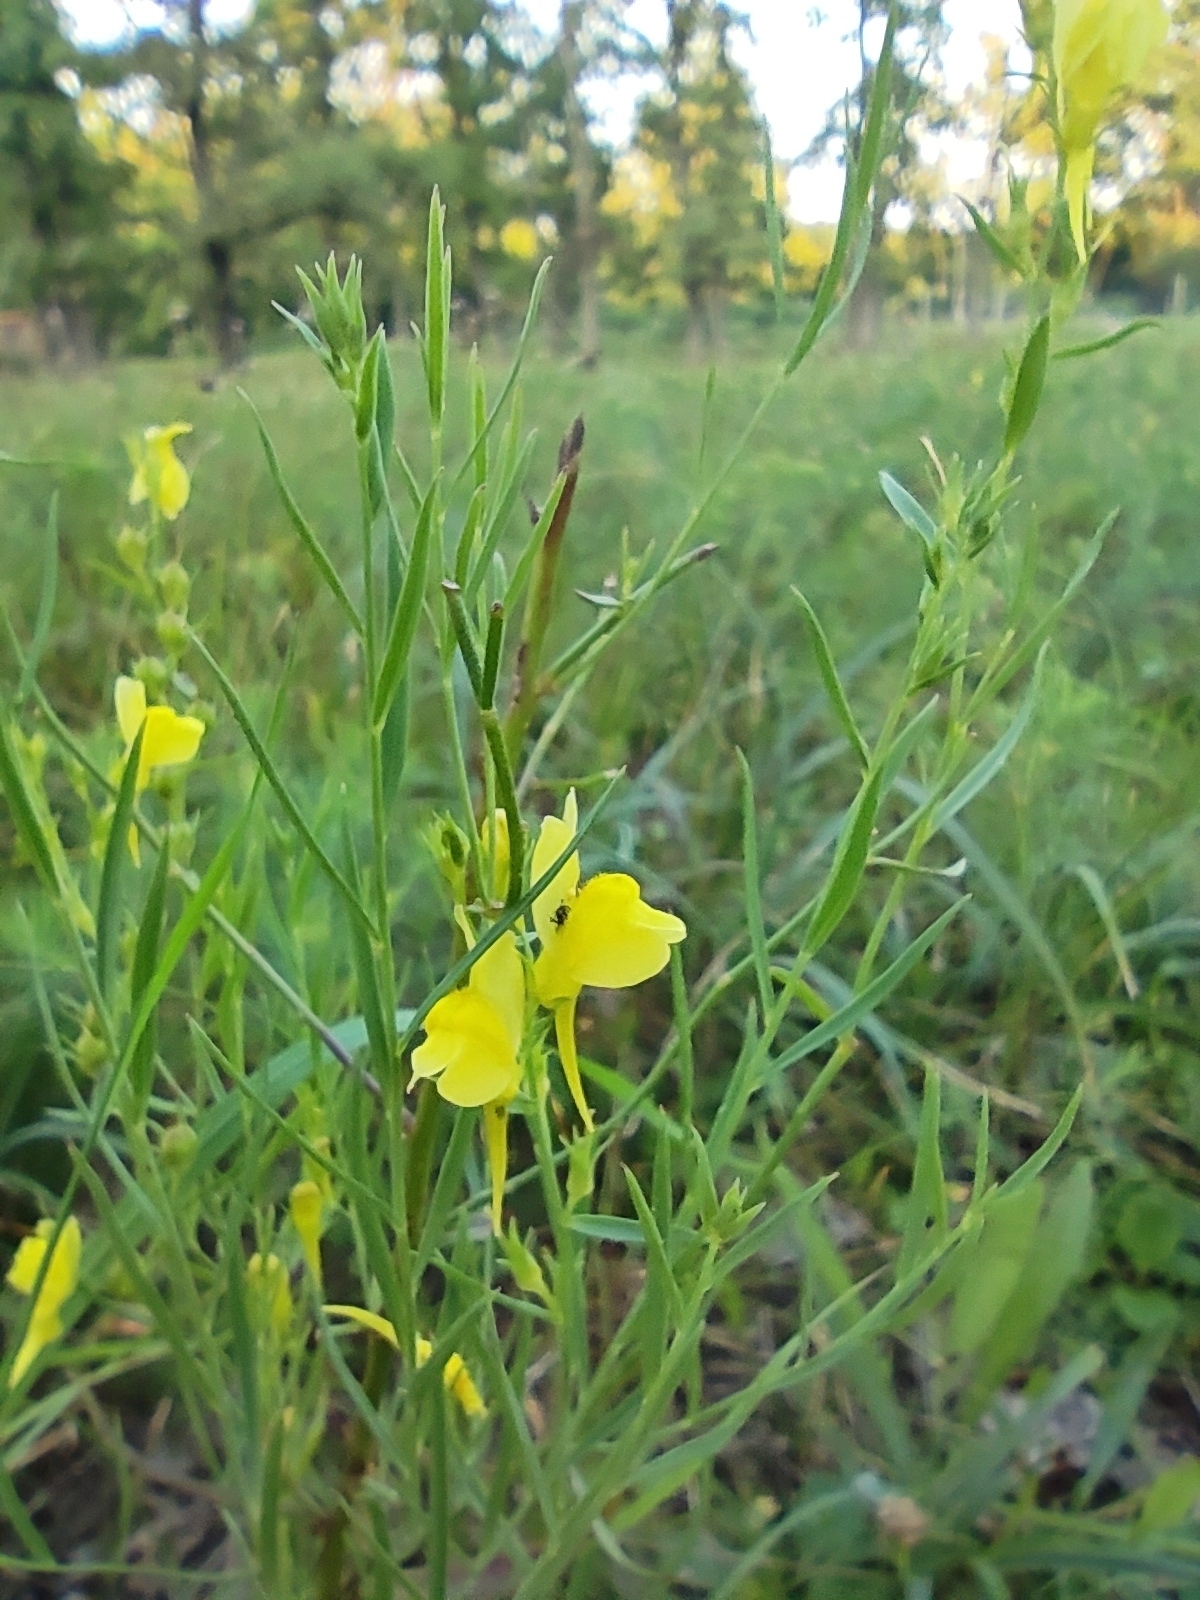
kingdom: Plantae
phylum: Tracheophyta
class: Magnoliopsida
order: Lamiales
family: Plantaginaceae
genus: Linaria
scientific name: Linaria vulgaris
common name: Butter and eggs
